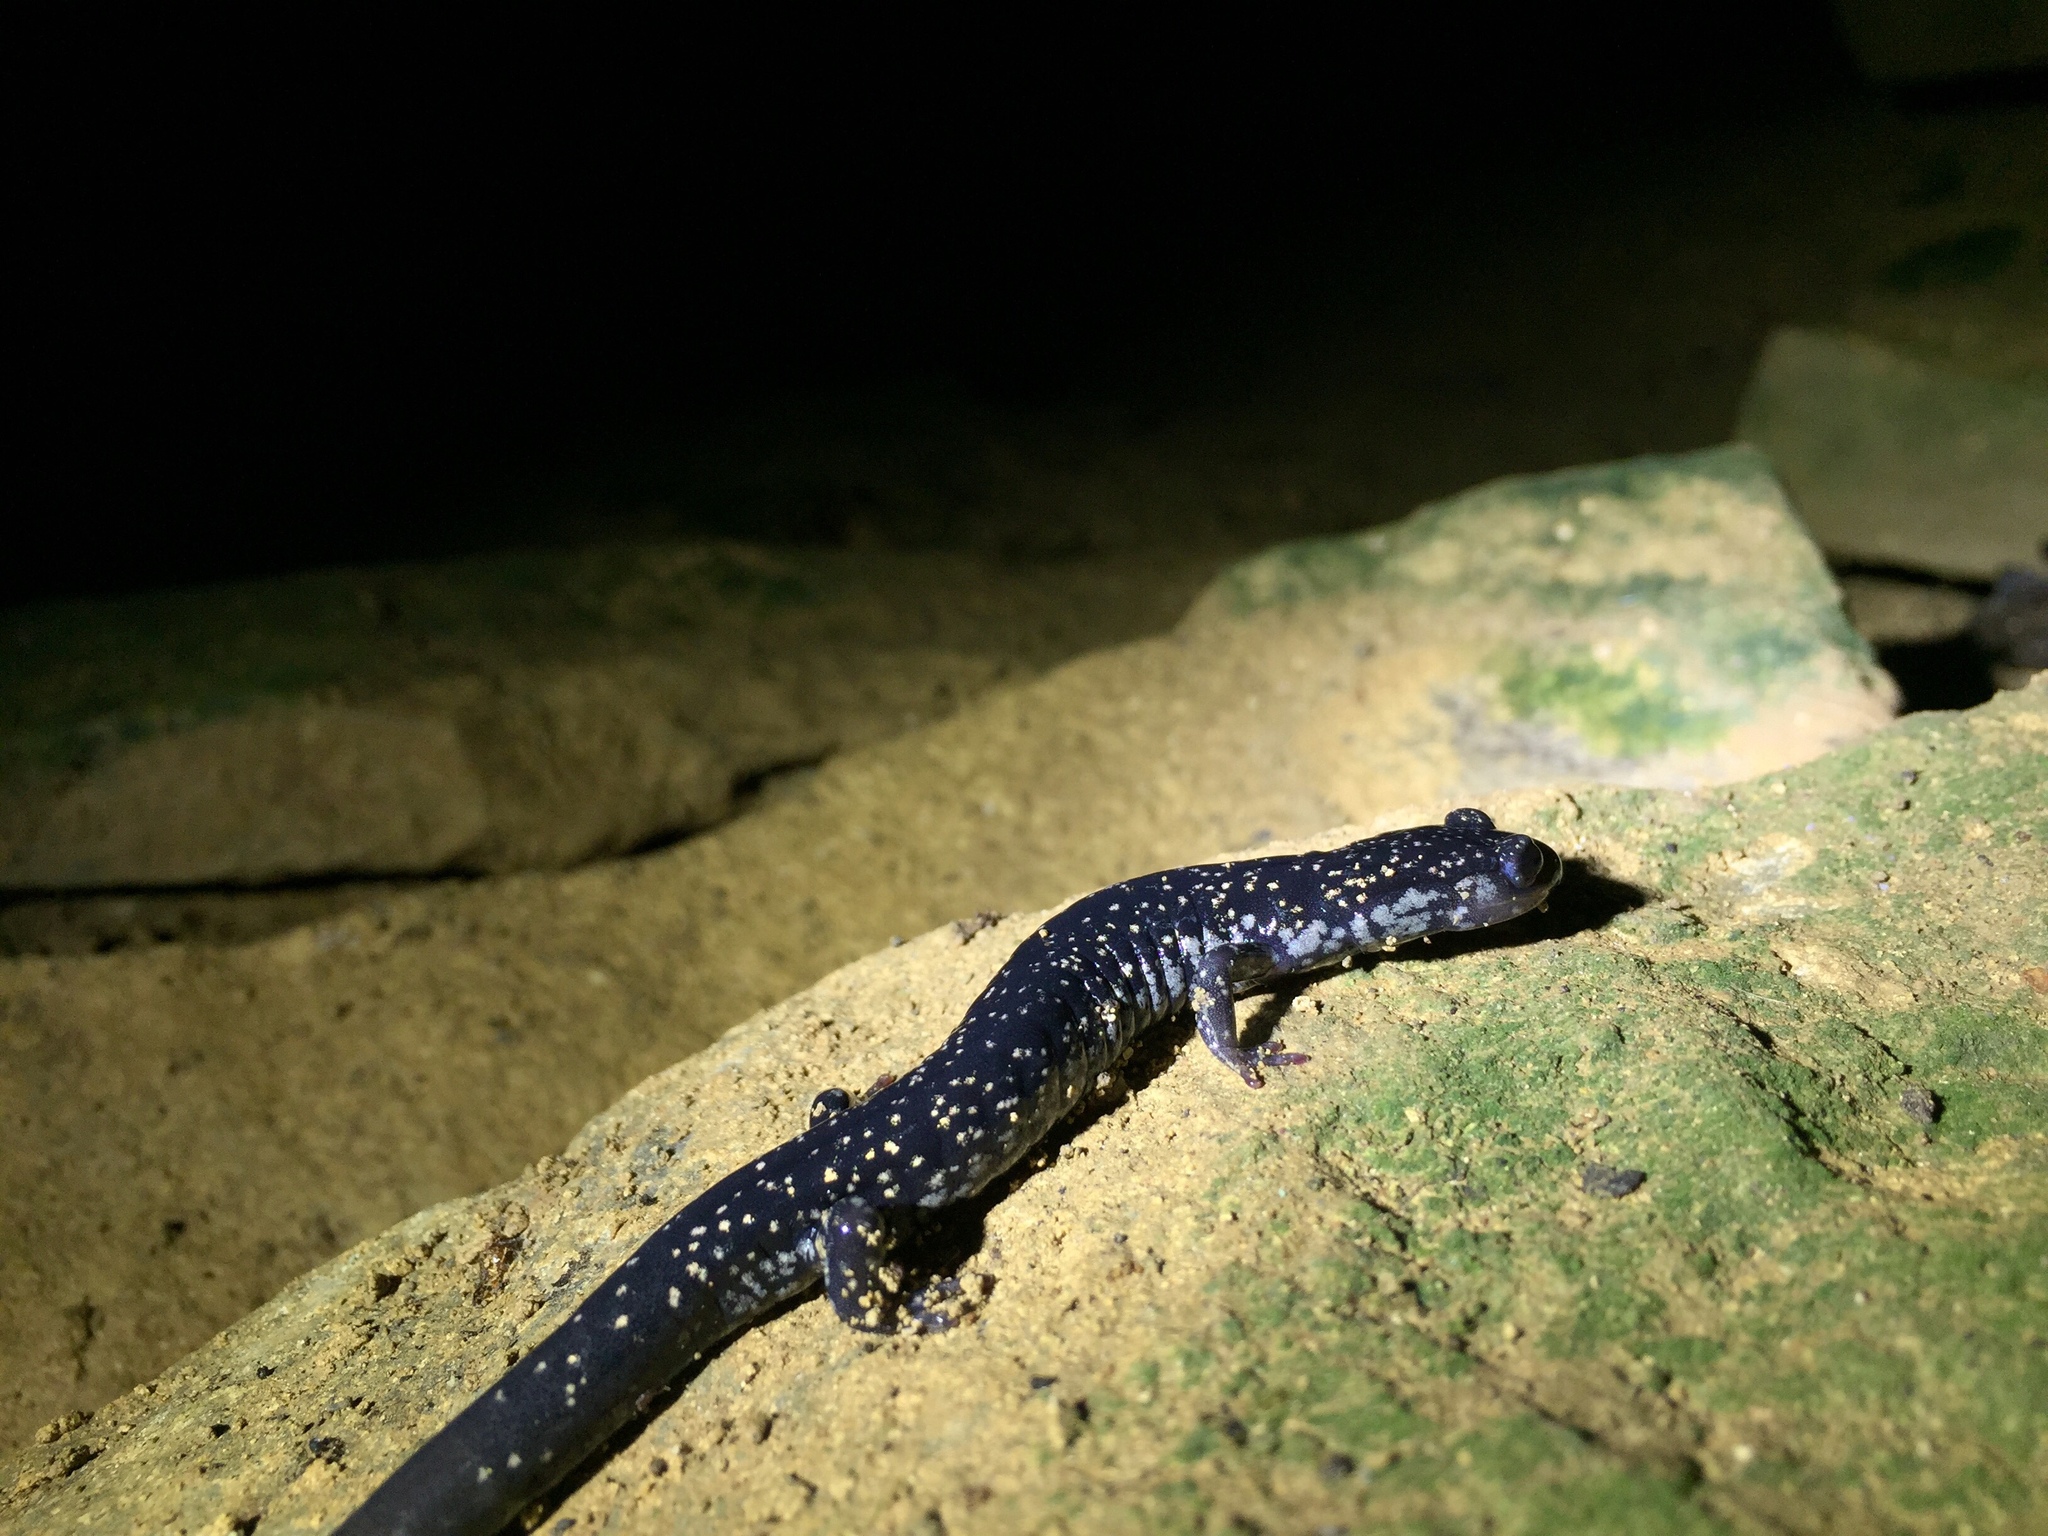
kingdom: Animalia
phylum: Chordata
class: Amphibia
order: Caudata
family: Plethodontidae
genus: Plethodon
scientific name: Plethodon glutinosus
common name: Northern slimy salamander
